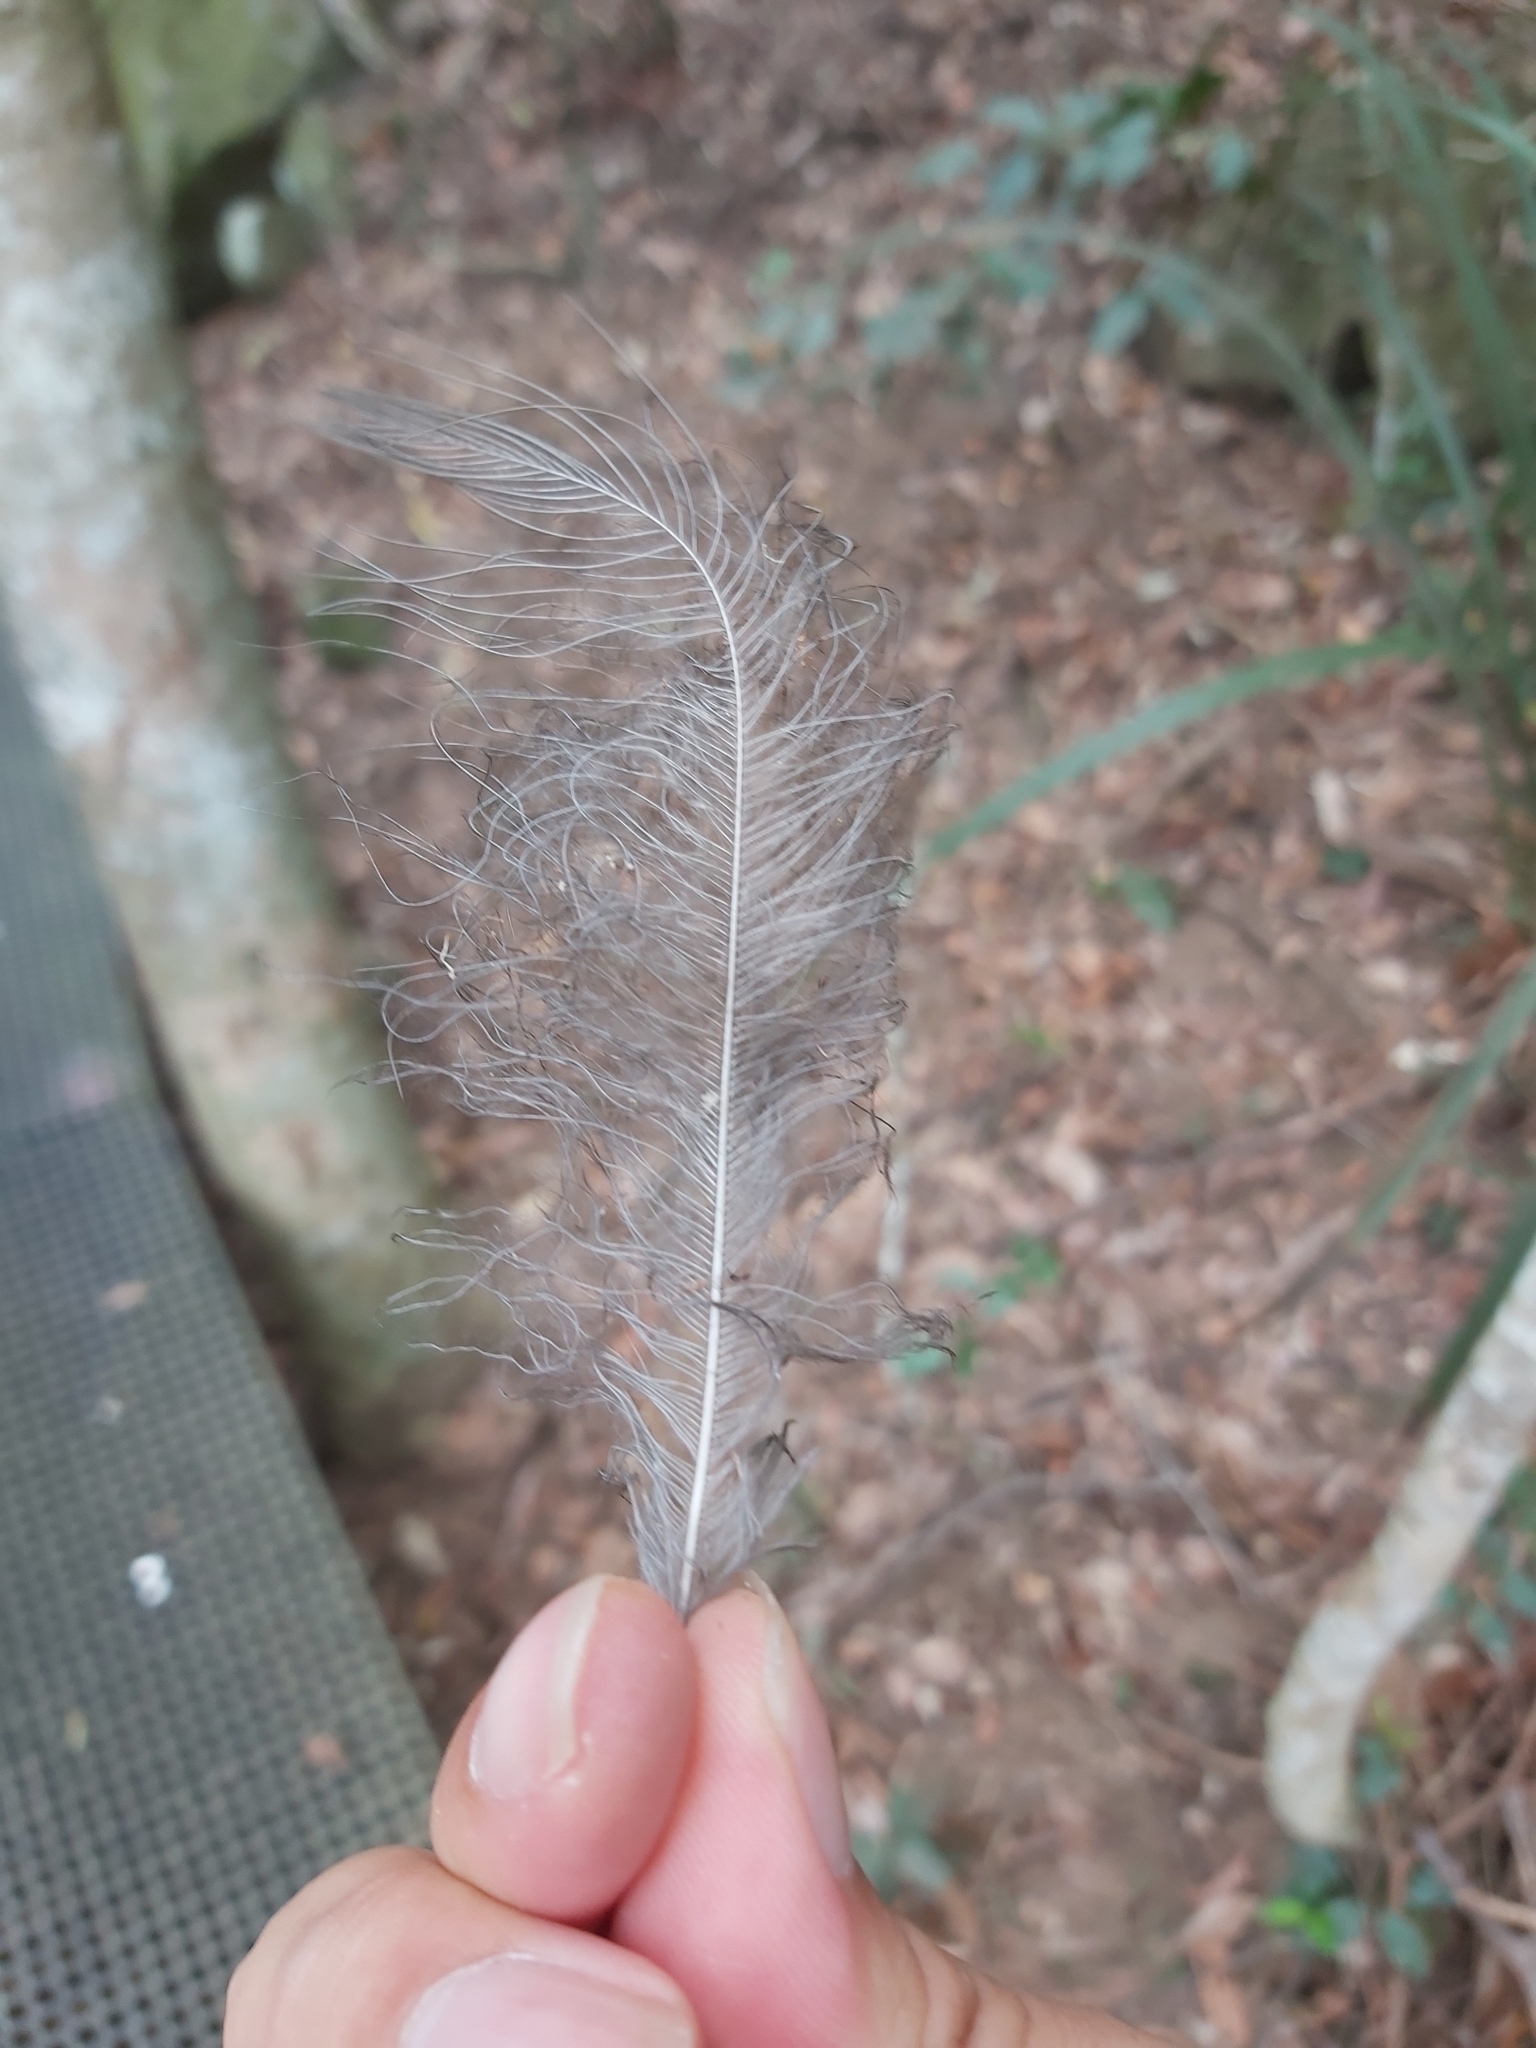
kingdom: Animalia
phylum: Chordata
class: Aves
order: Passeriformes
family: Menuridae
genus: Menura
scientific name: Menura novaehollandiae
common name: Superb lyrebird
